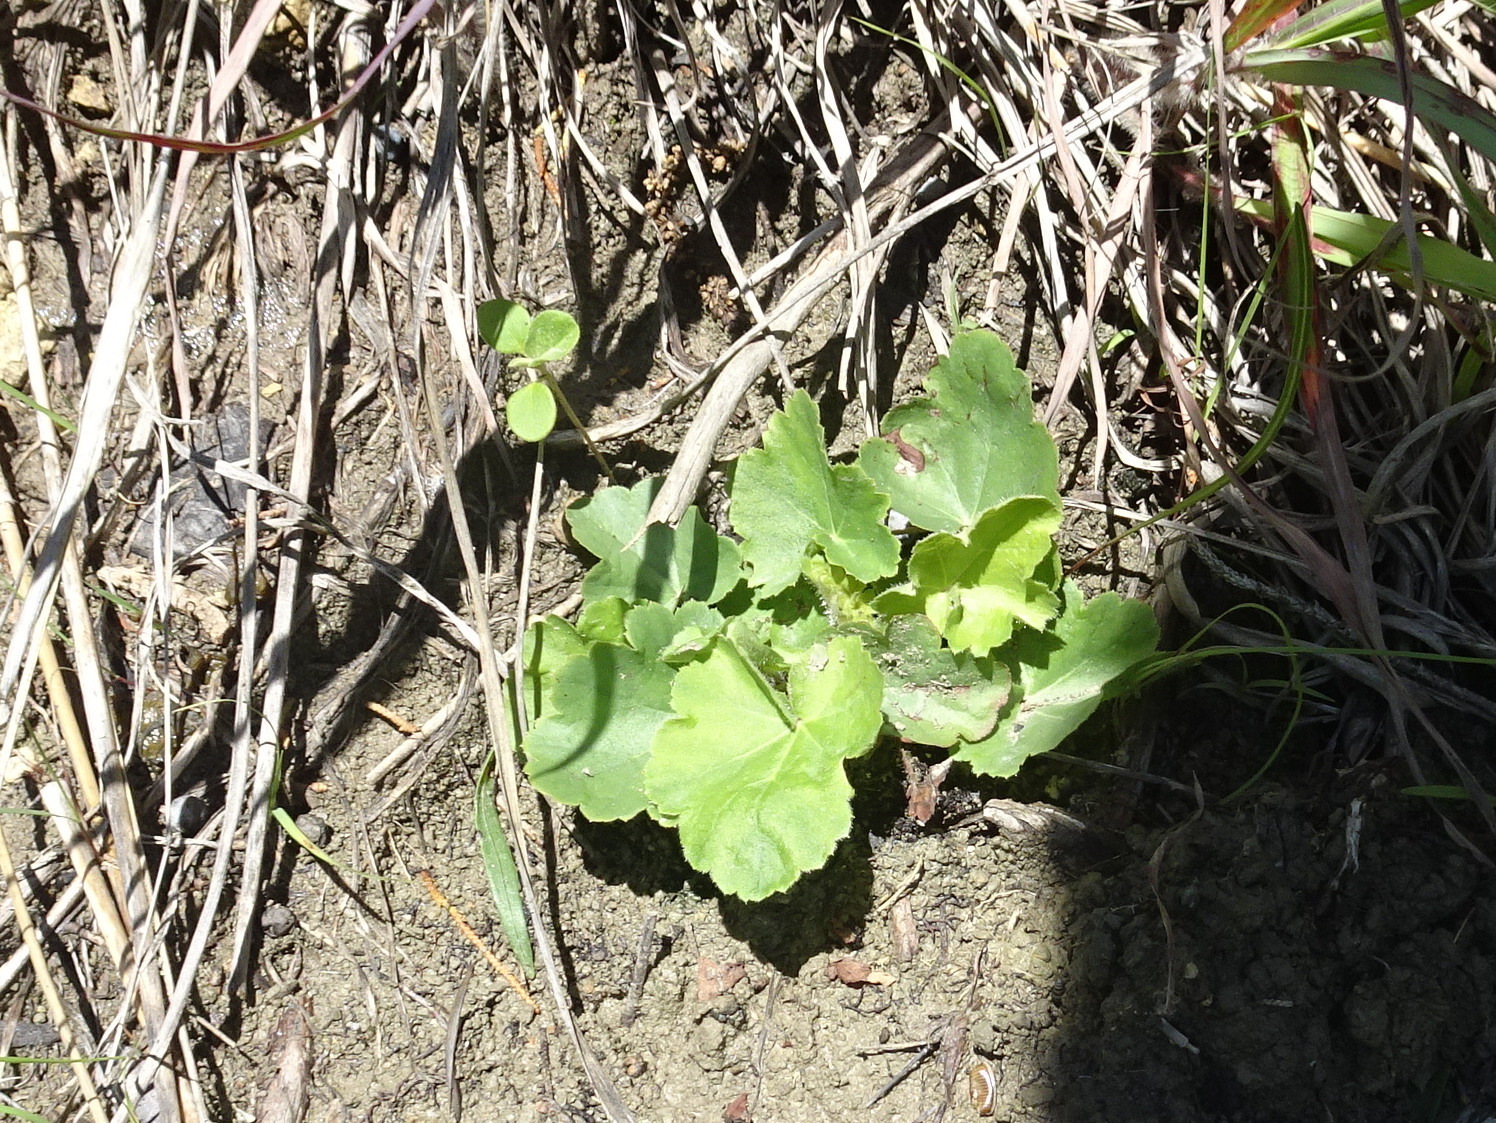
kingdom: Plantae
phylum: Tracheophyta
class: Magnoliopsida
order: Saxifragales
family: Saxifragaceae
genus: Heuchera
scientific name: Heuchera richardsonii
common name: Richardson's alumroot
